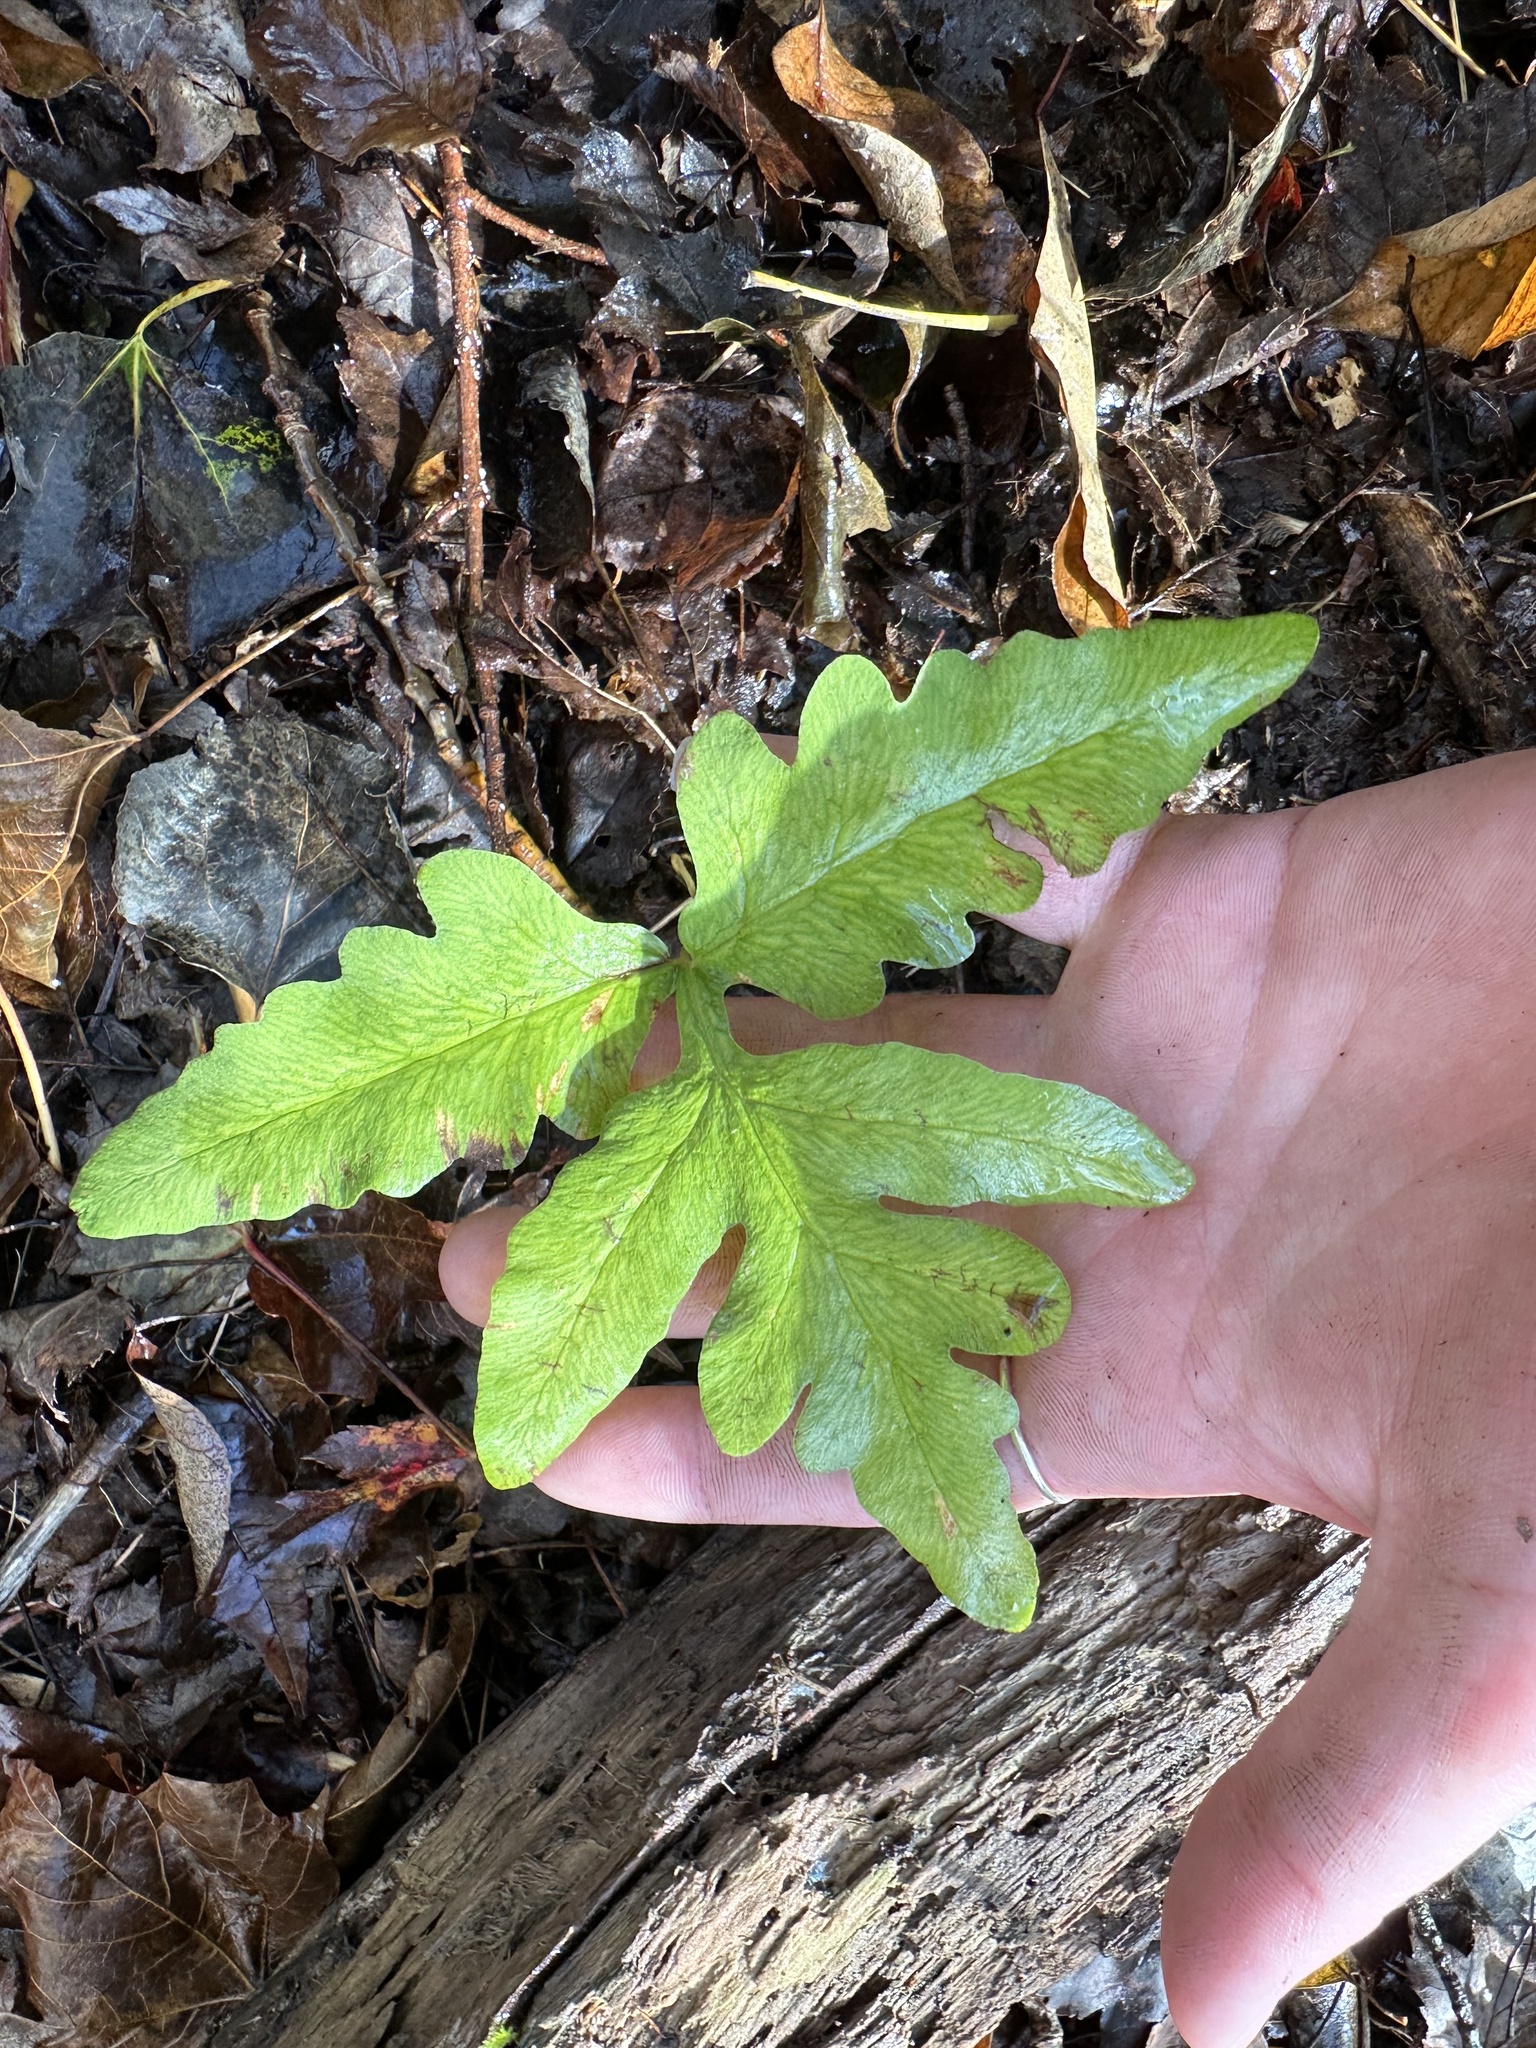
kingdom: Plantae
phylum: Tracheophyta
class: Polypodiopsida
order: Polypodiales
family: Onocleaceae
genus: Onoclea
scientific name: Onoclea sensibilis
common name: Sensitive fern
